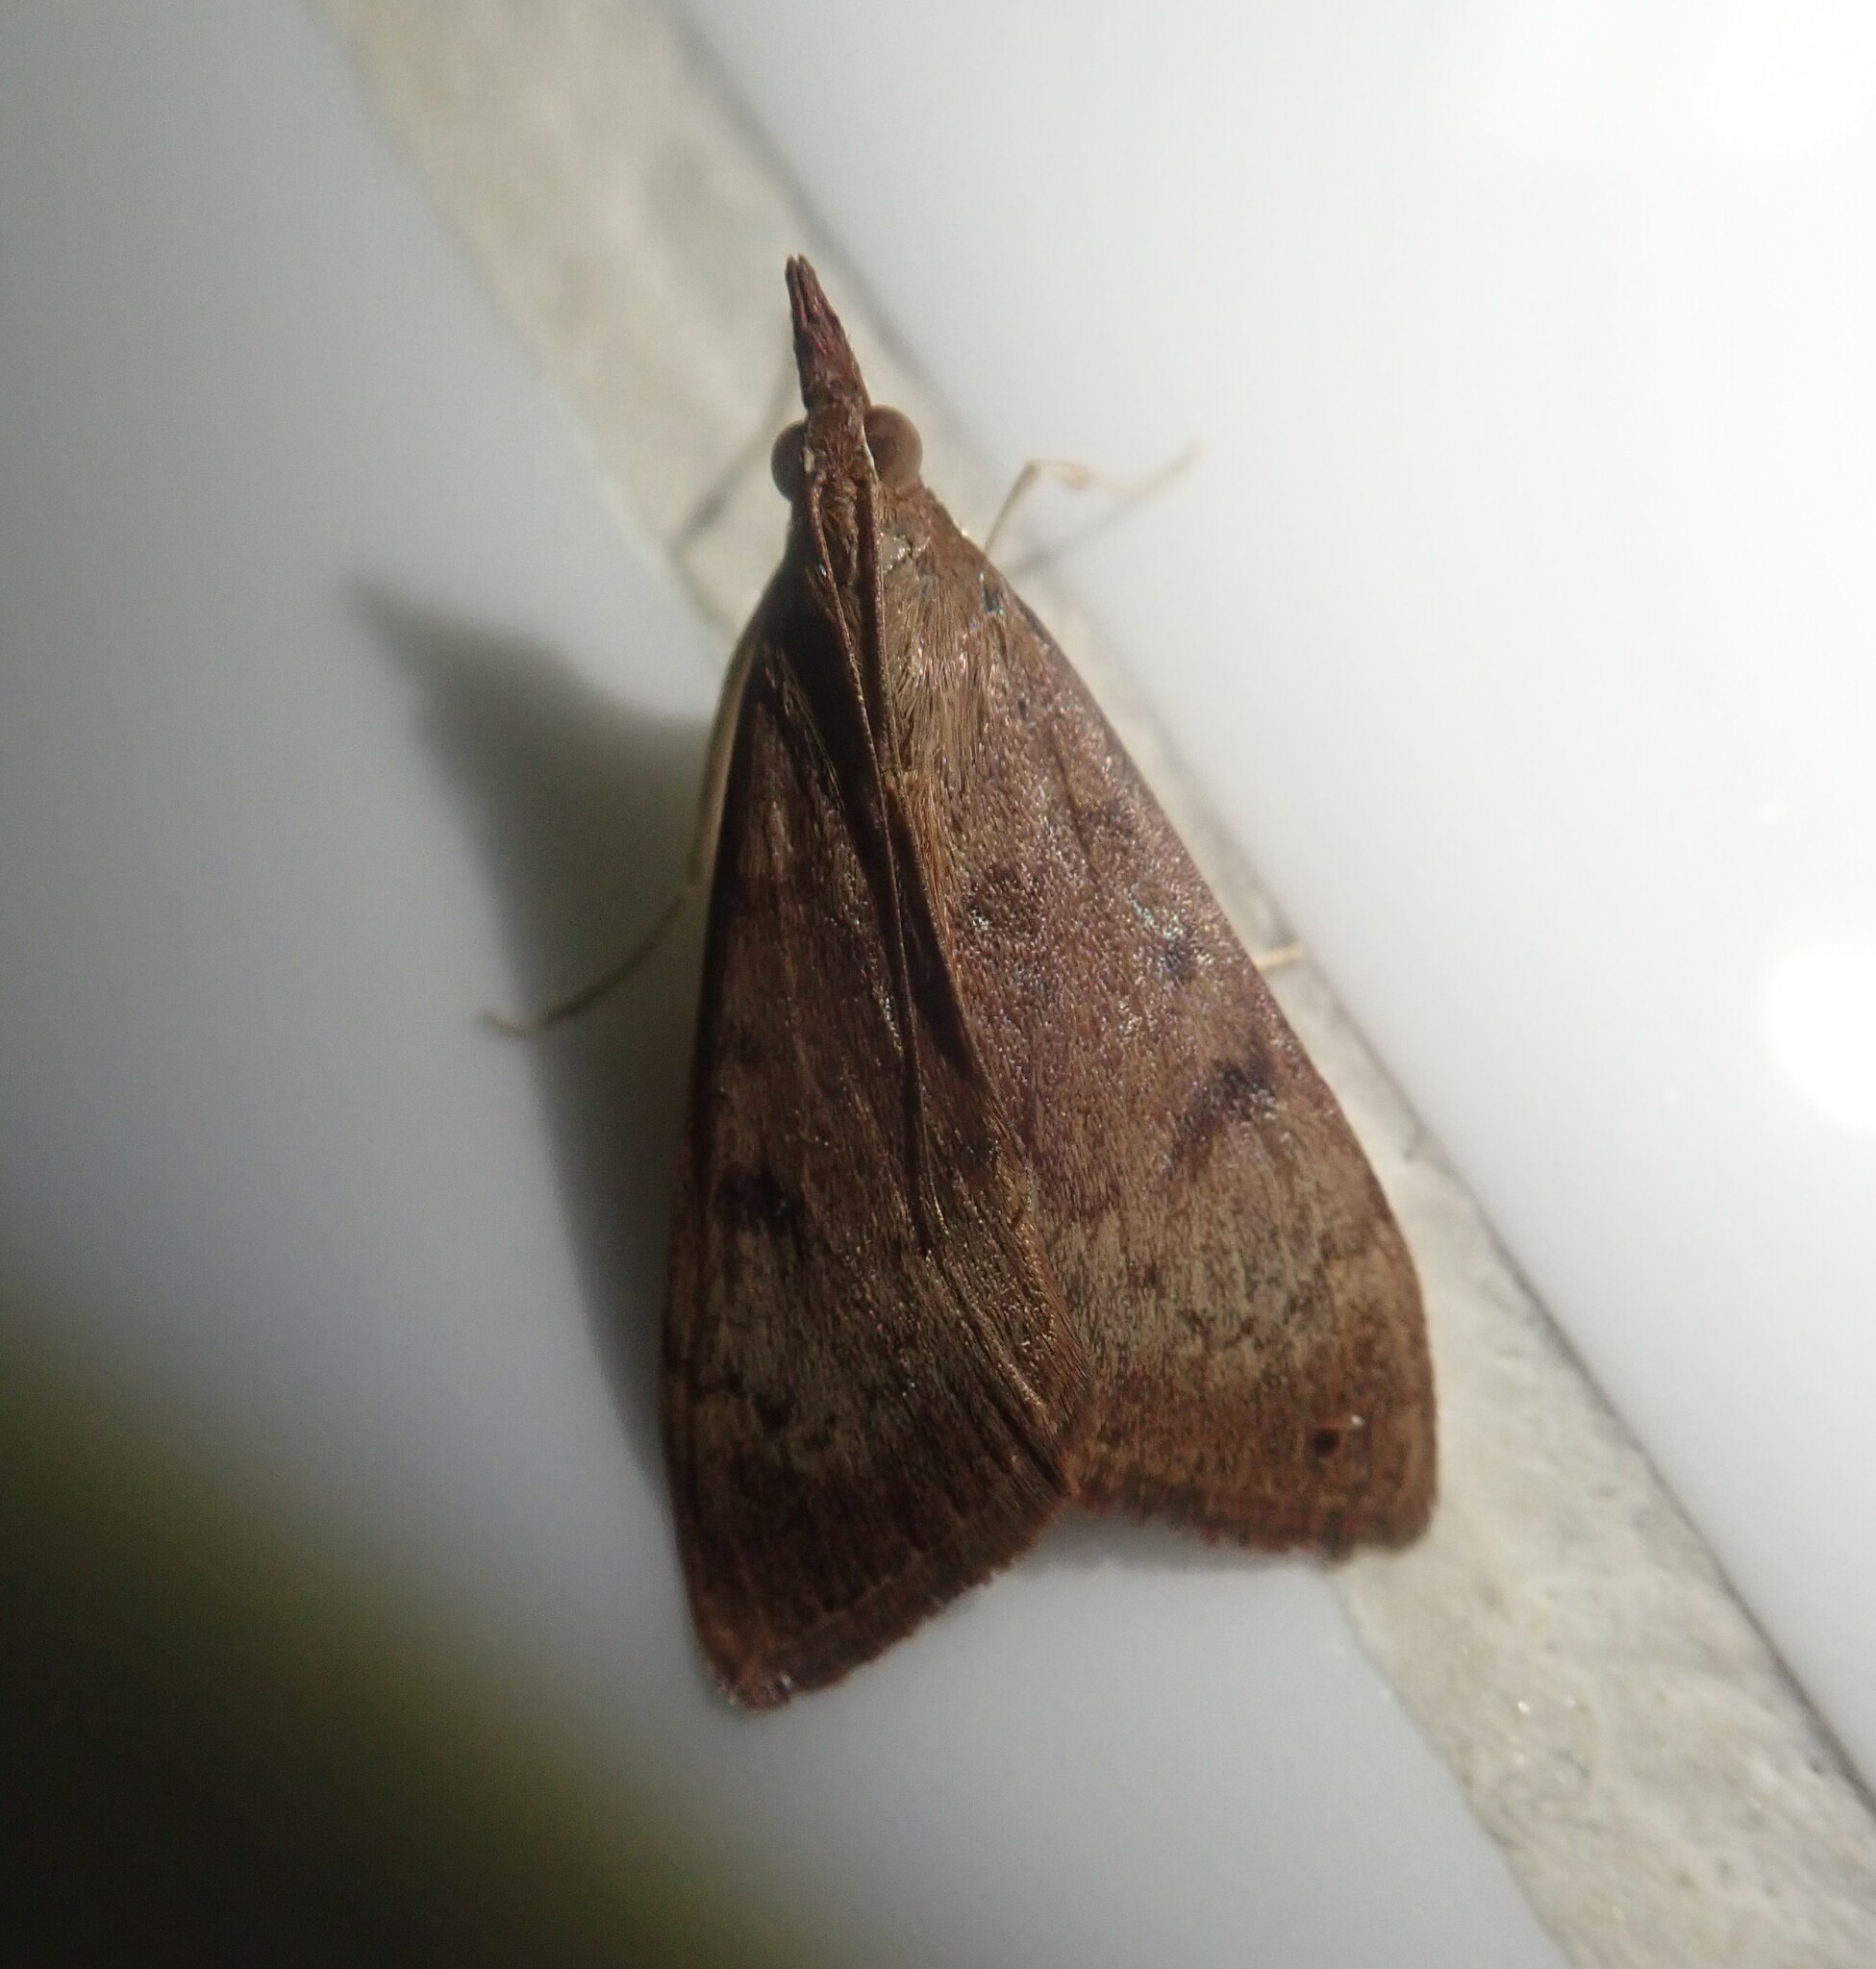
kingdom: Animalia
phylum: Arthropoda
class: Insecta
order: Lepidoptera
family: Crambidae
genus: Uresiphita
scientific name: Uresiphita gilvata
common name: Yellow-underwing pearl
